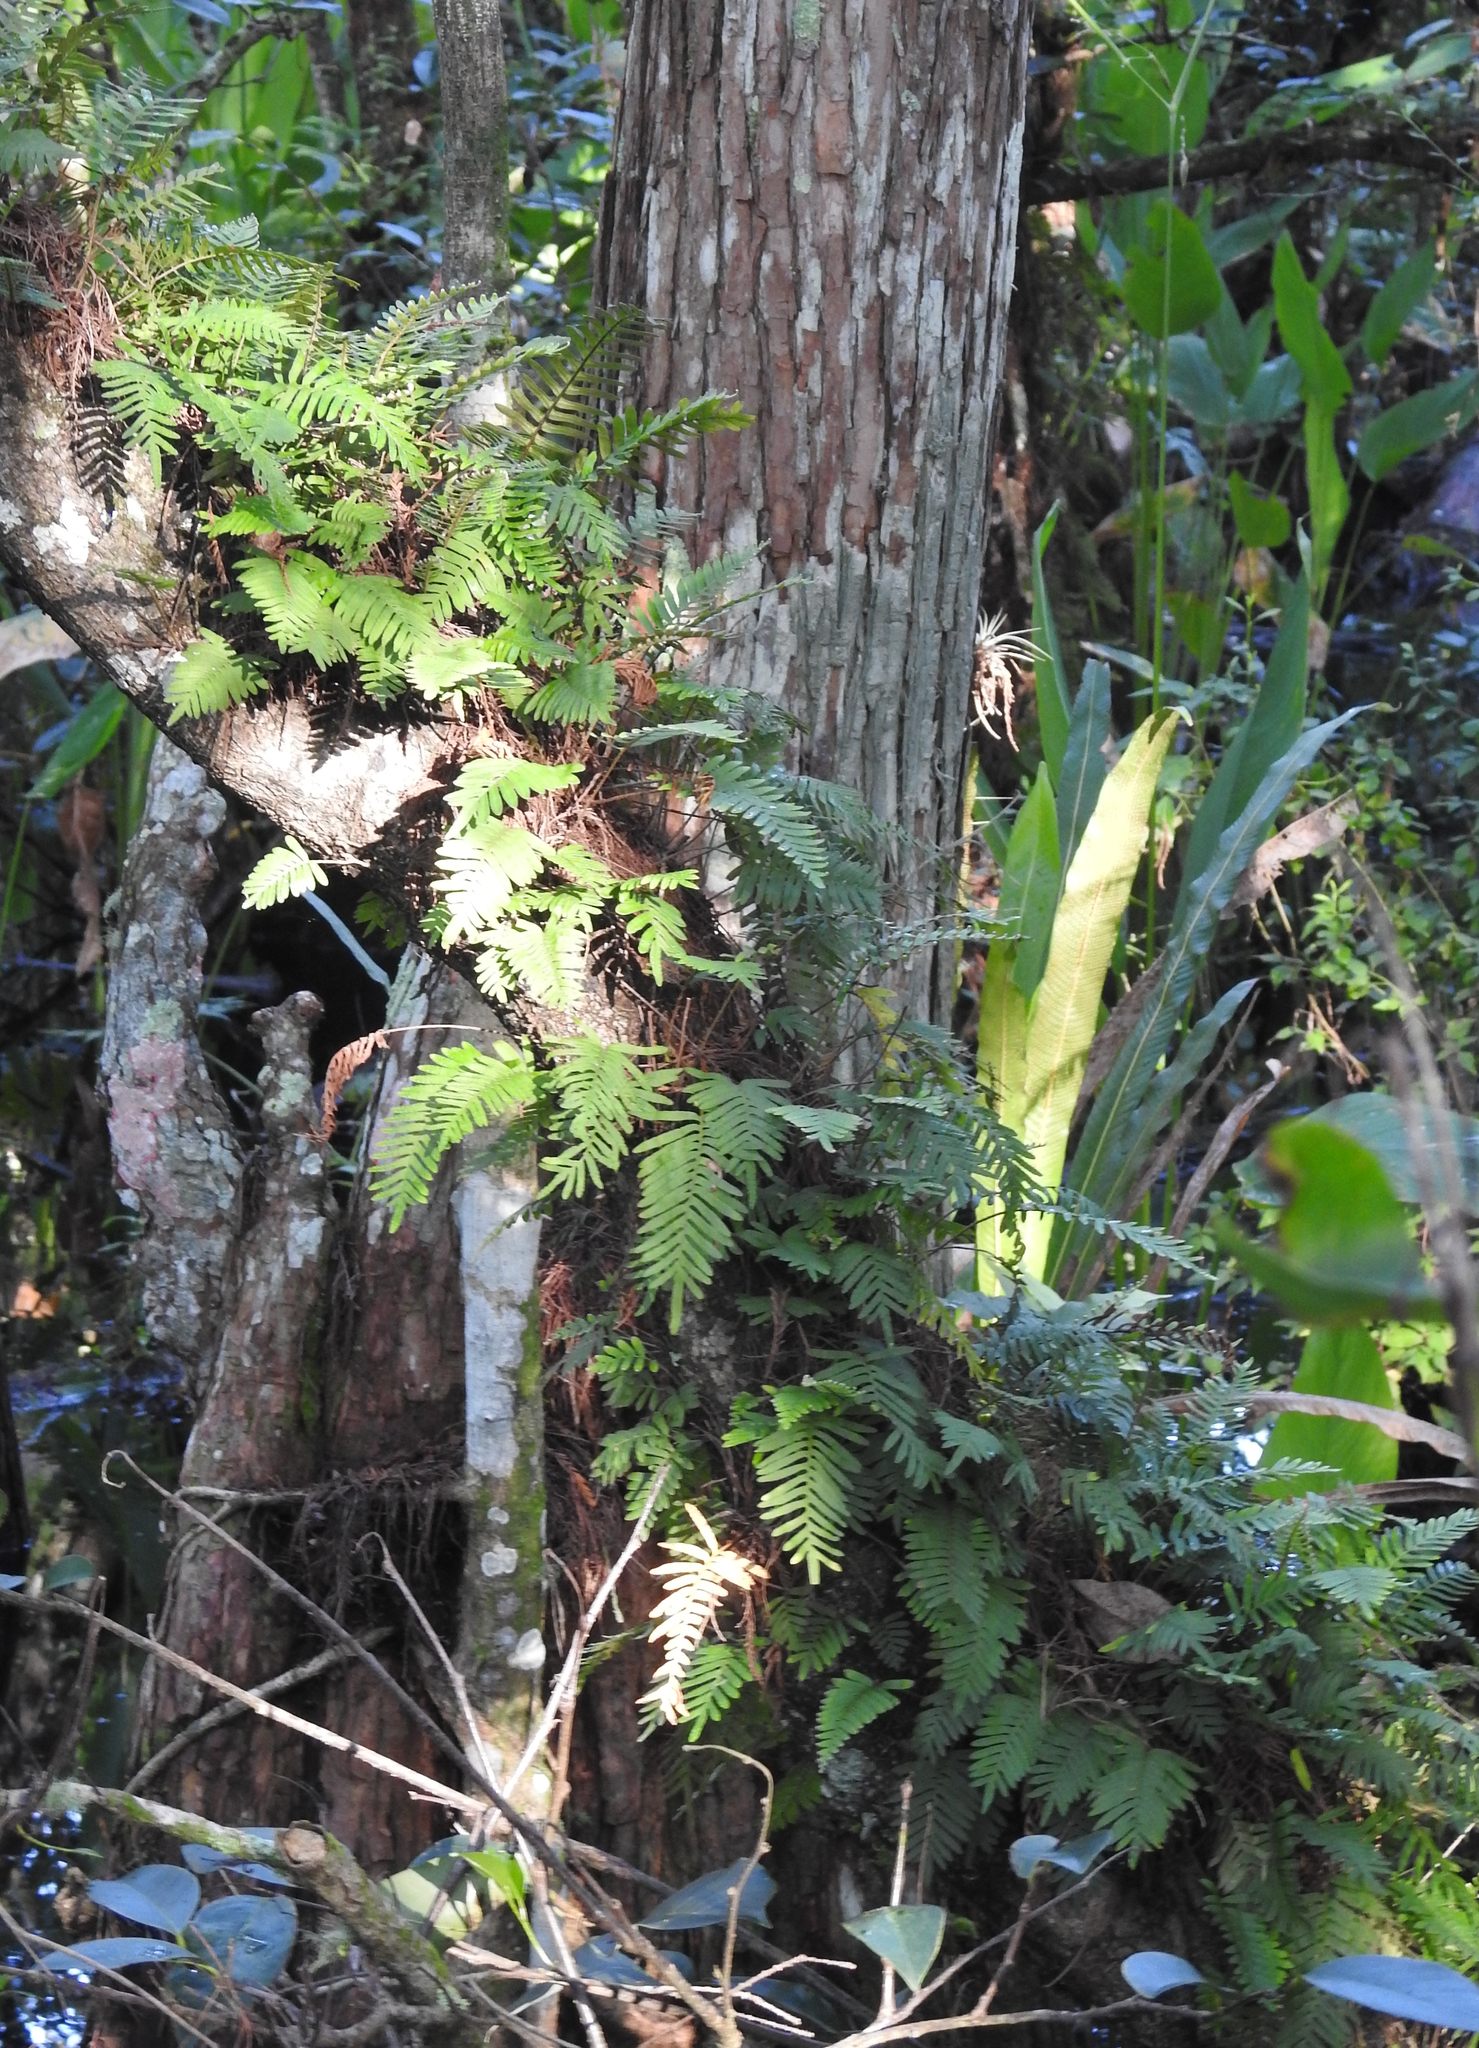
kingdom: Plantae
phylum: Tracheophyta
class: Polypodiopsida
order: Polypodiales
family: Polypodiaceae
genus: Pleopeltis
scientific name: Pleopeltis michauxiana
